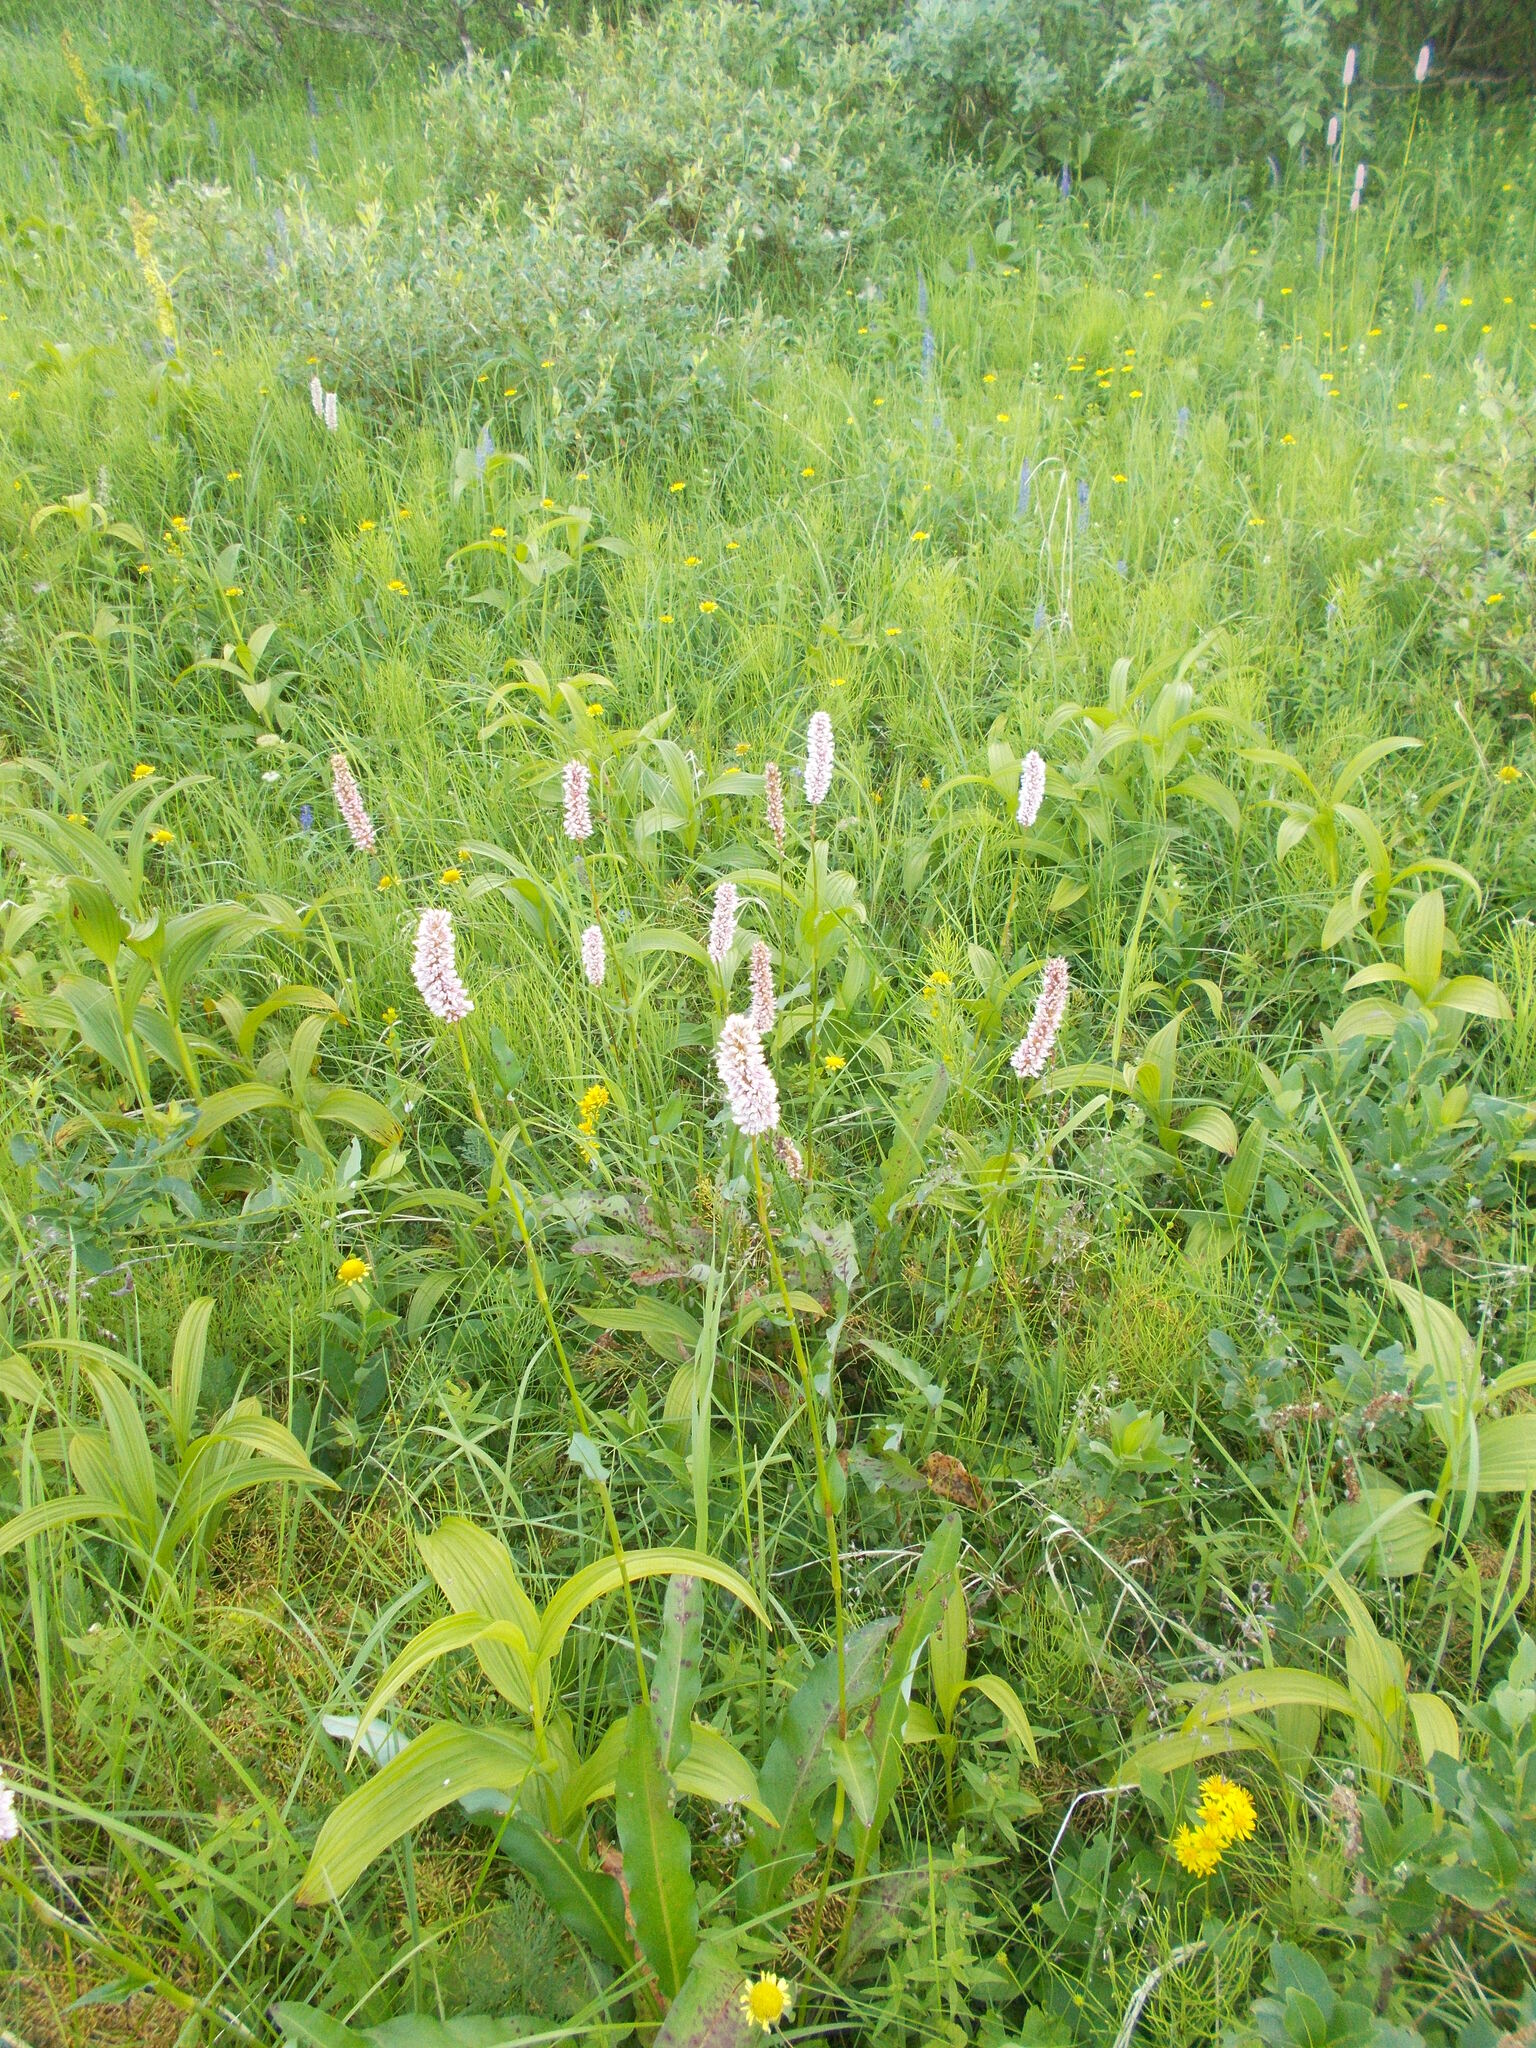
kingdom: Plantae
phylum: Tracheophyta
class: Magnoliopsida
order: Caryophyllales
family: Polygonaceae
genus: Bistorta
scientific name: Bistorta officinalis
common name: Common bistort
